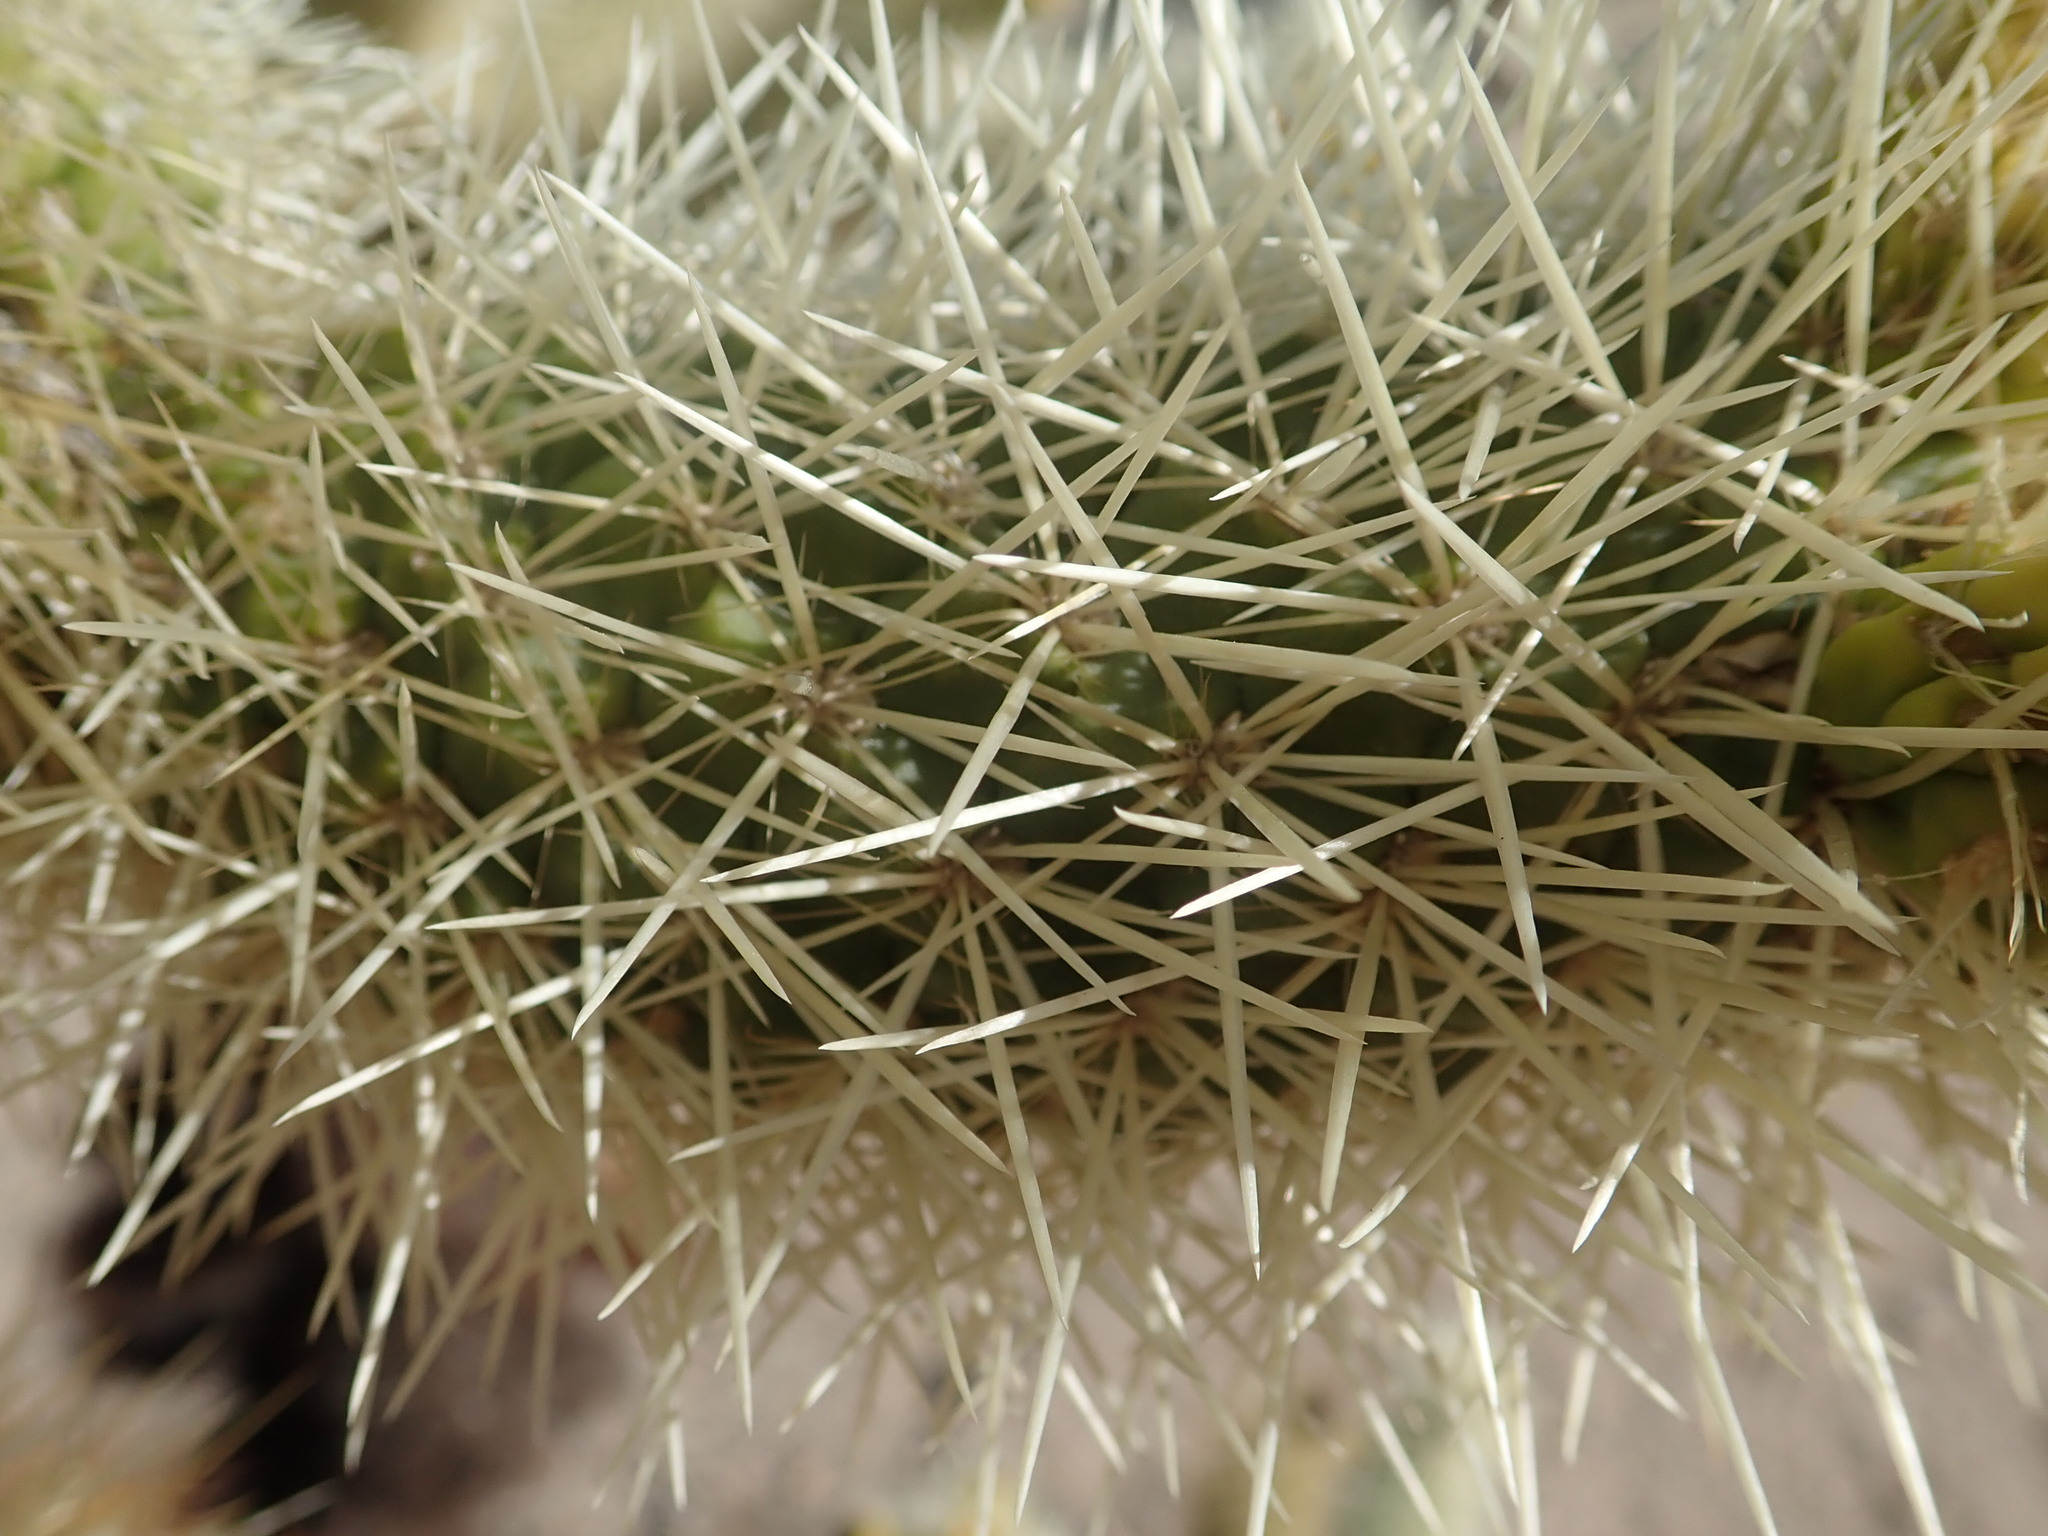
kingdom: Plantae
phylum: Tracheophyta
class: Magnoliopsida
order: Caryophyllales
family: Cactaceae
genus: Cylindropuntia
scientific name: Cylindropuntia fosbergii
